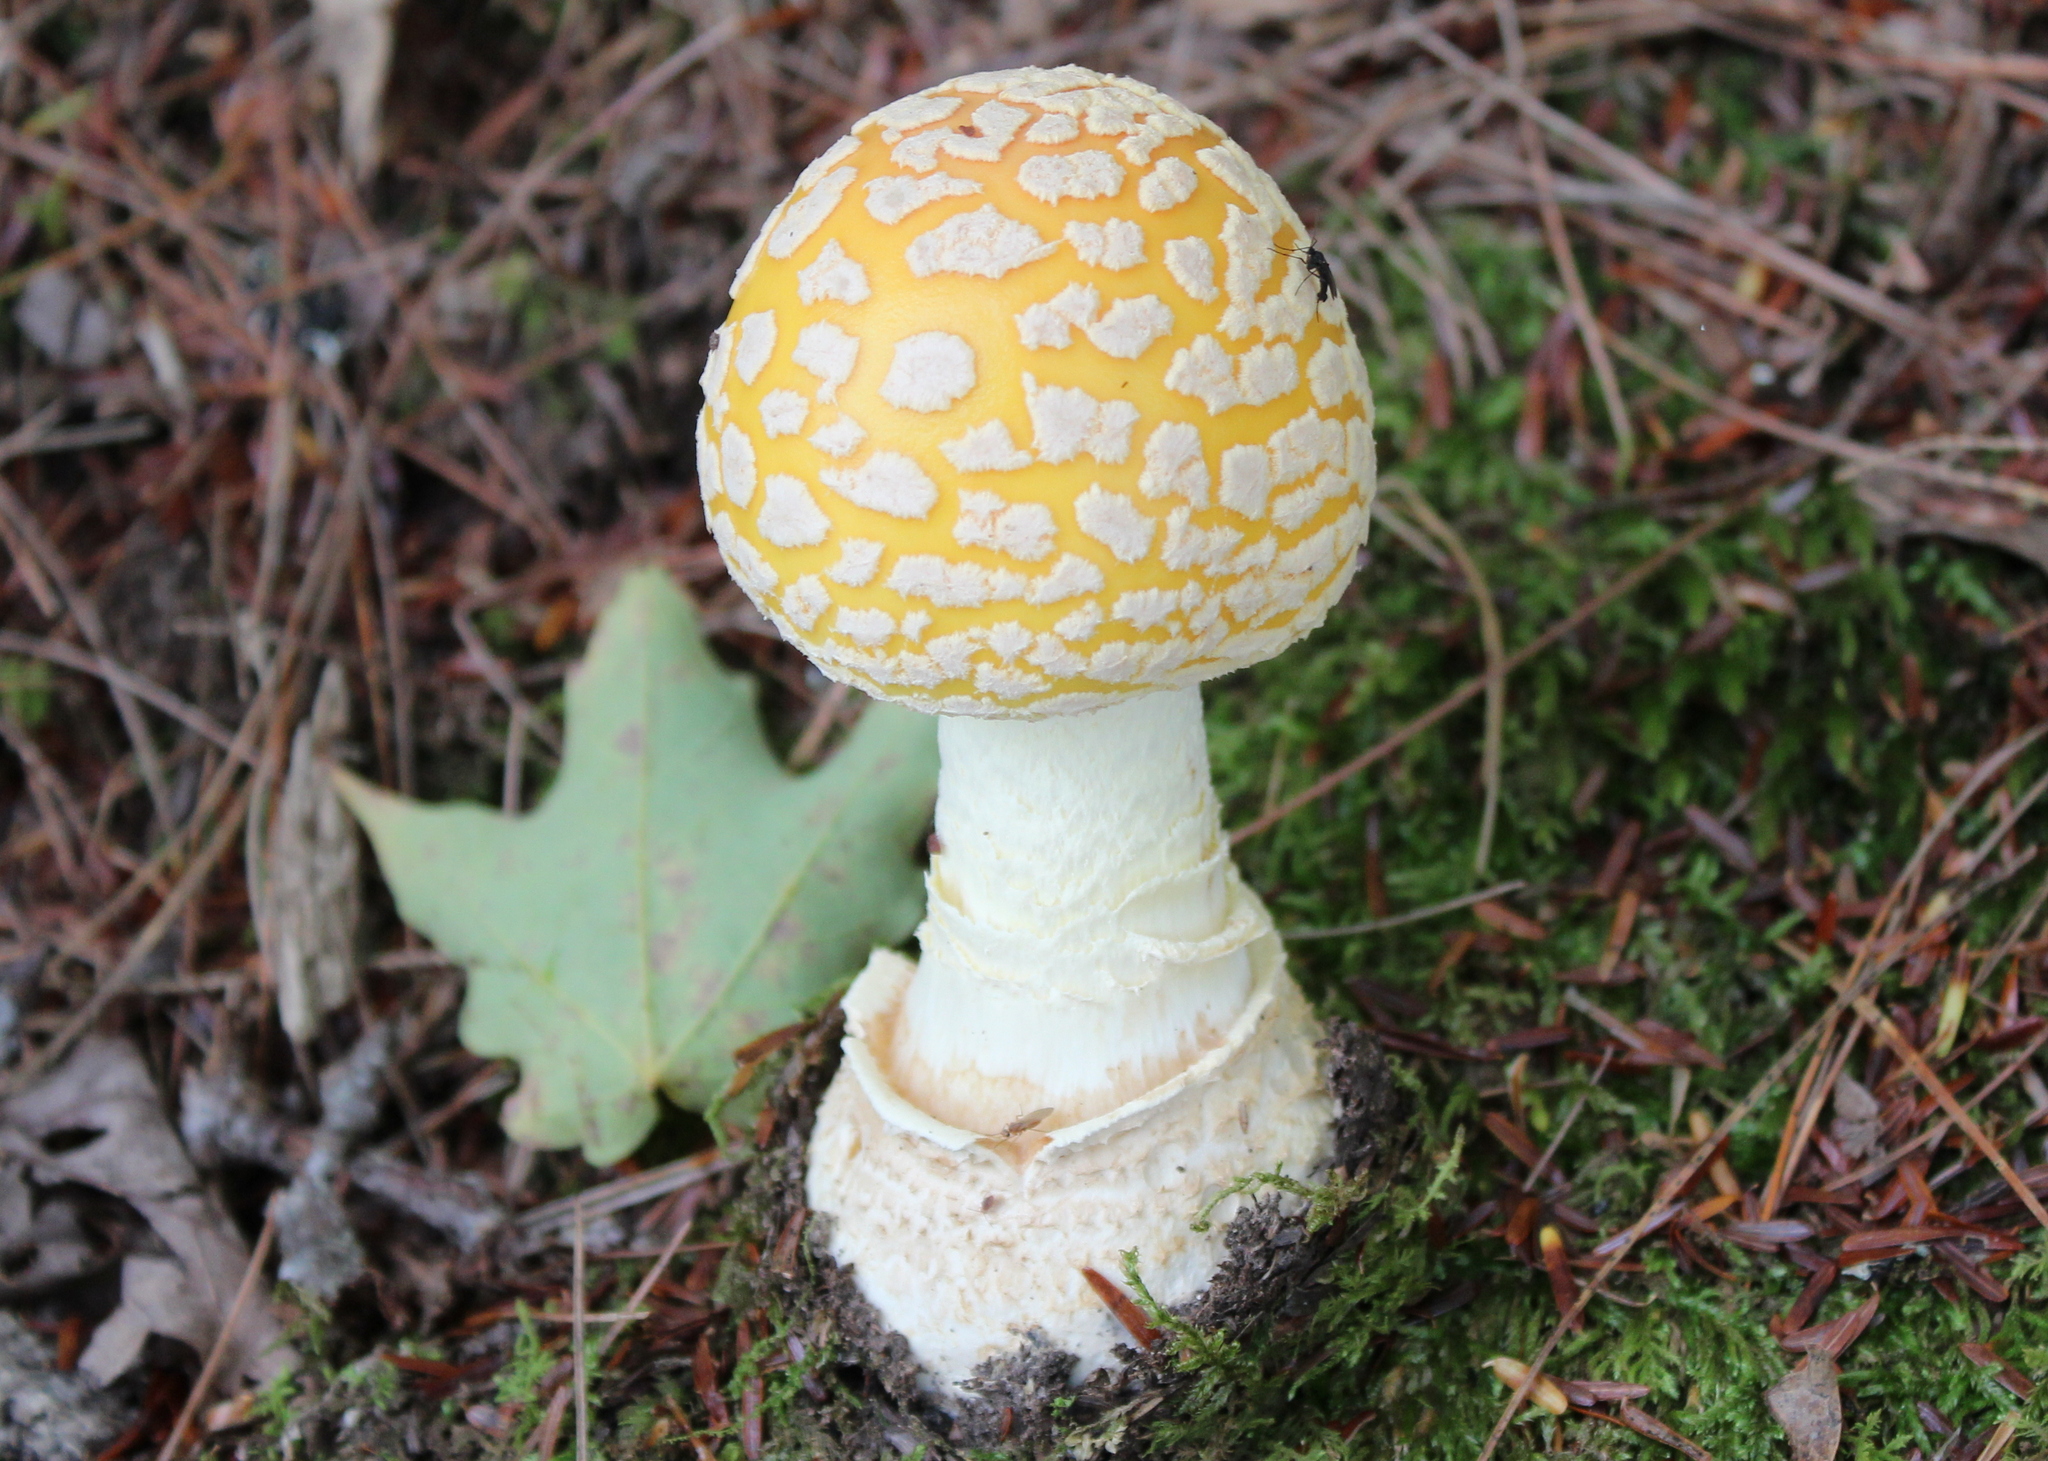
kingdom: Fungi
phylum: Basidiomycota
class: Agaricomycetes
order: Agaricales
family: Amanitaceae
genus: Amanita
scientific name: Amanita muscaria
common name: Fly agaric
